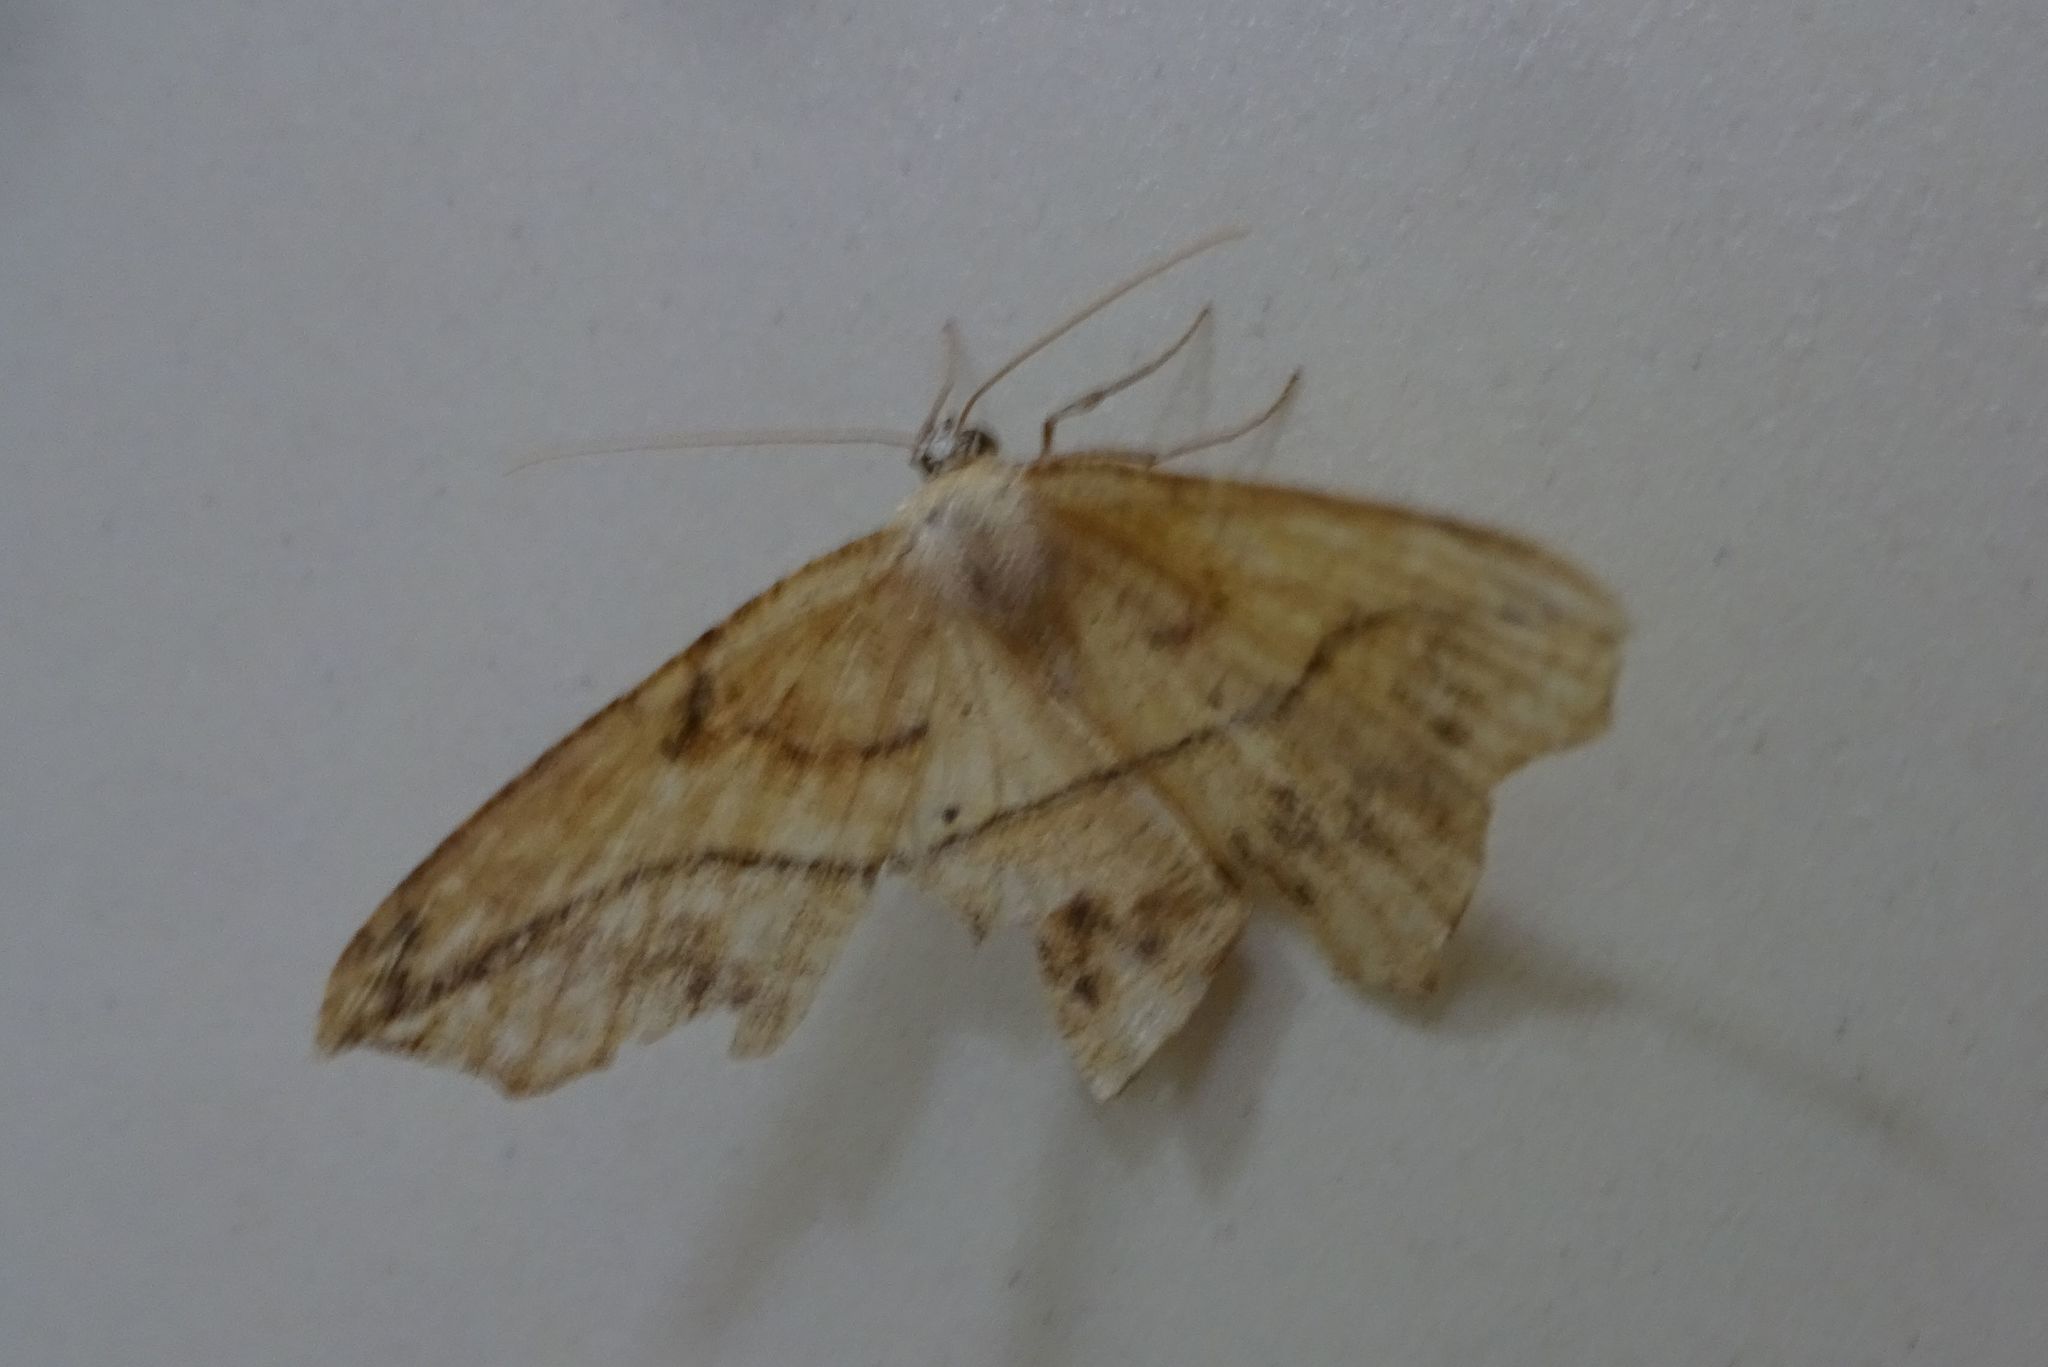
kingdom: Animalia
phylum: Arthropoda
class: Insecta
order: Lepidoptera
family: Geometridae
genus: Prochoerodes
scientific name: Prochoerodes lineola
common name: Large maple spanworm
